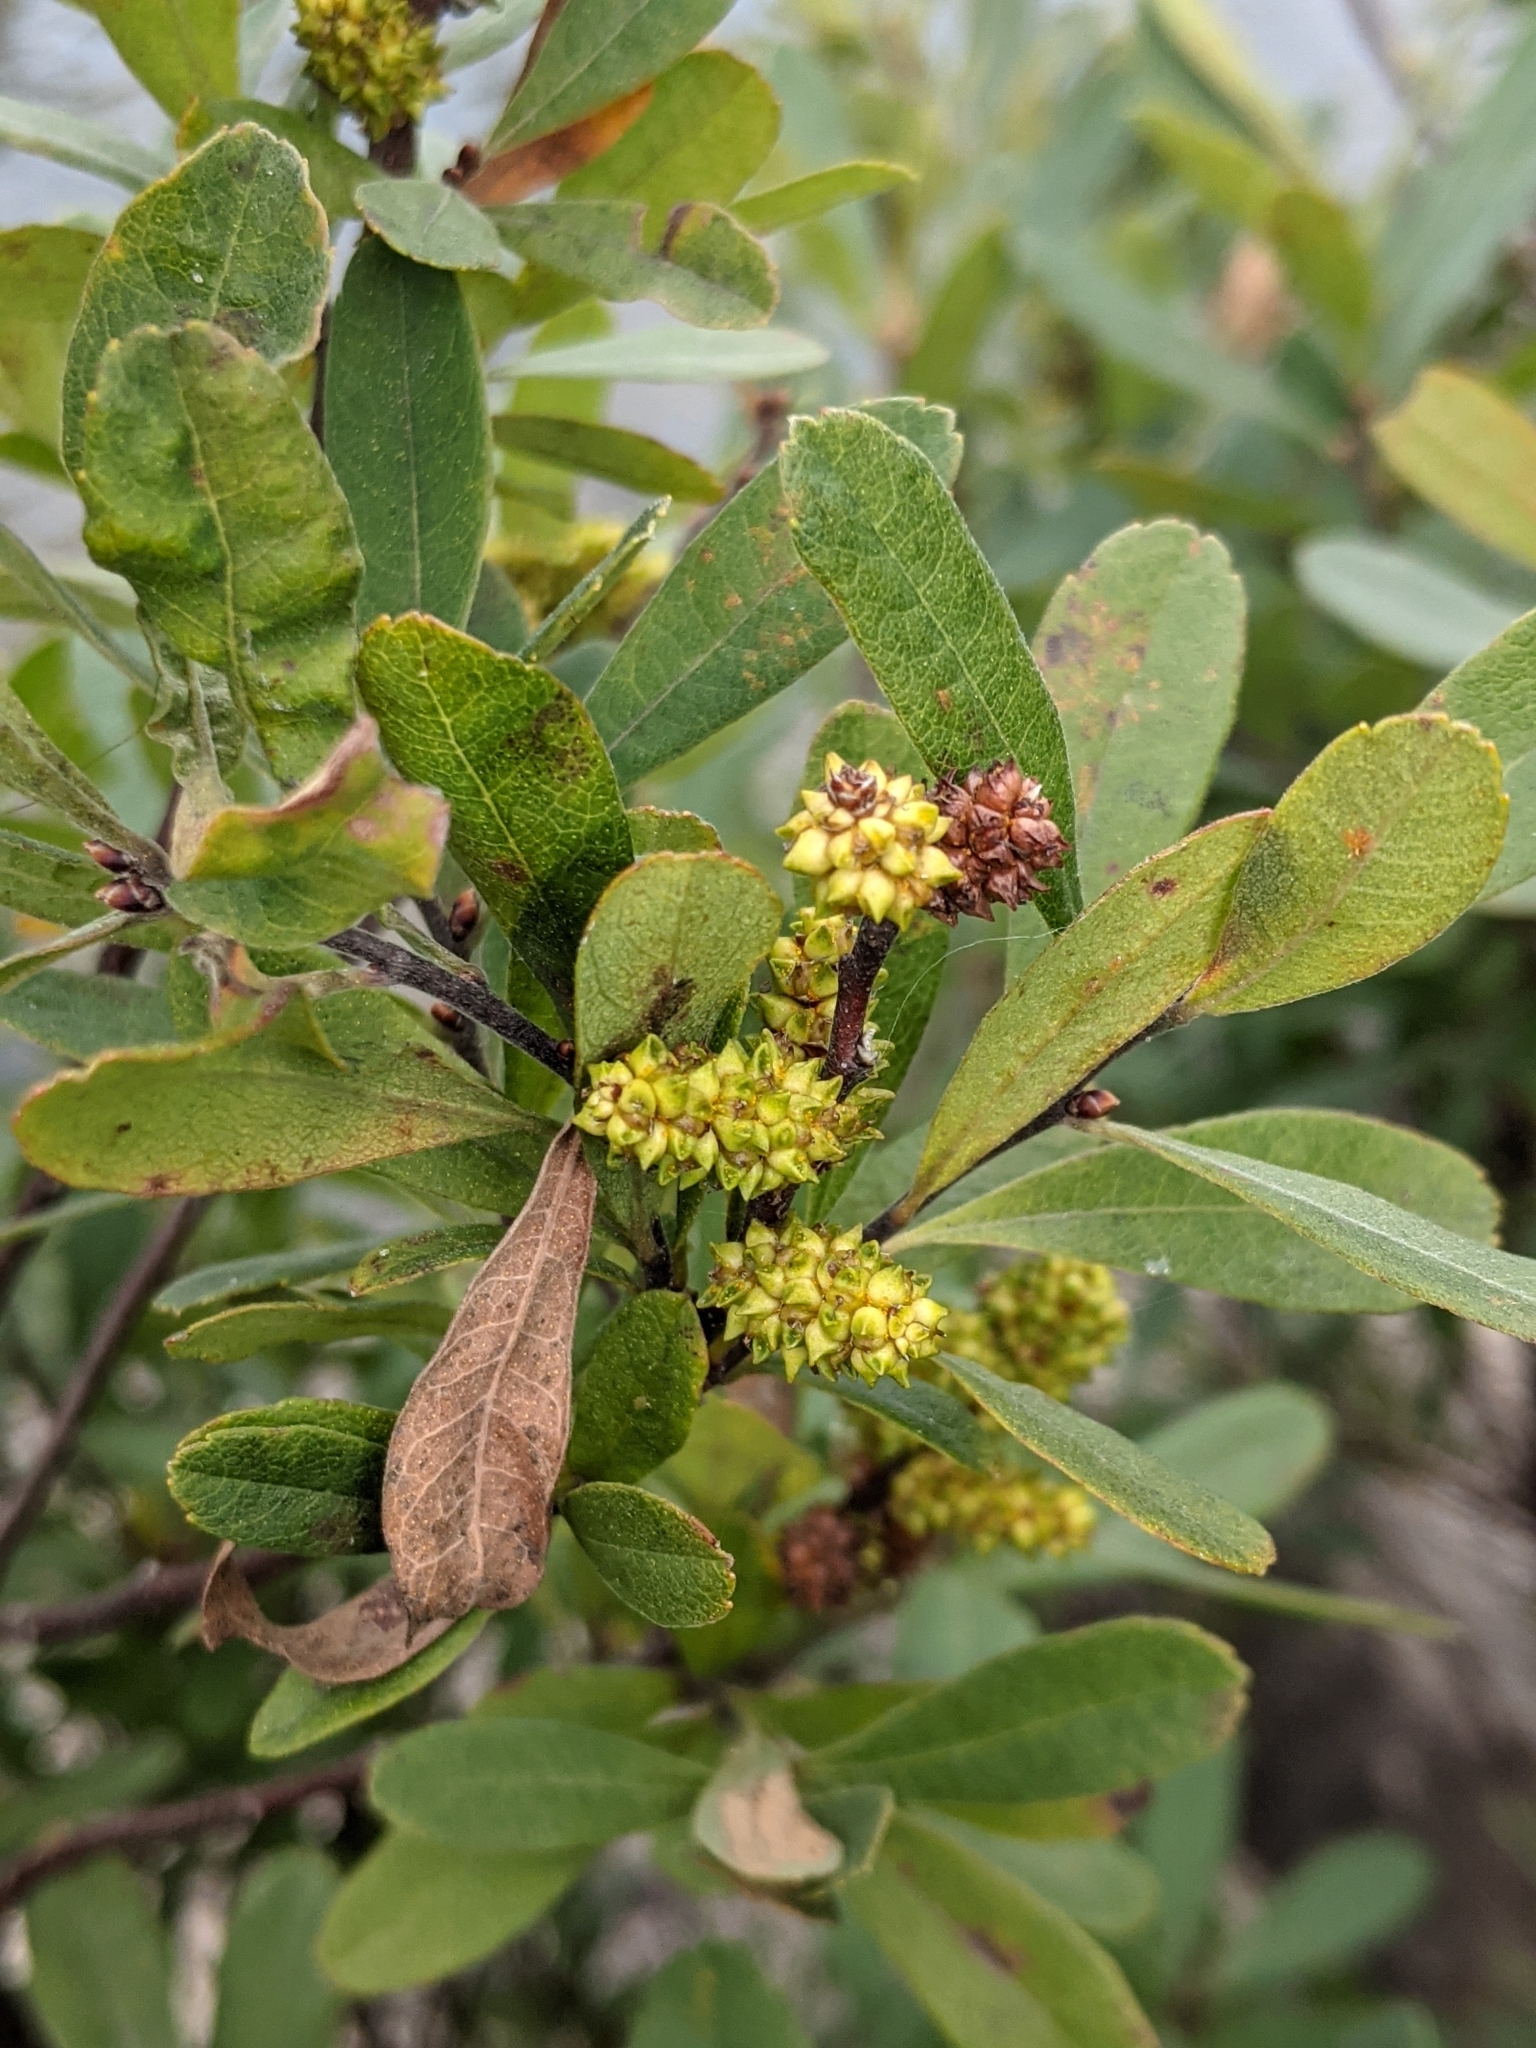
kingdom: Plantae
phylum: Tracheophyta
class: Magnoliopsida
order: Fagales
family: Myricaceae
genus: Myrica
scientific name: Myrica gale
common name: Sweet gale
